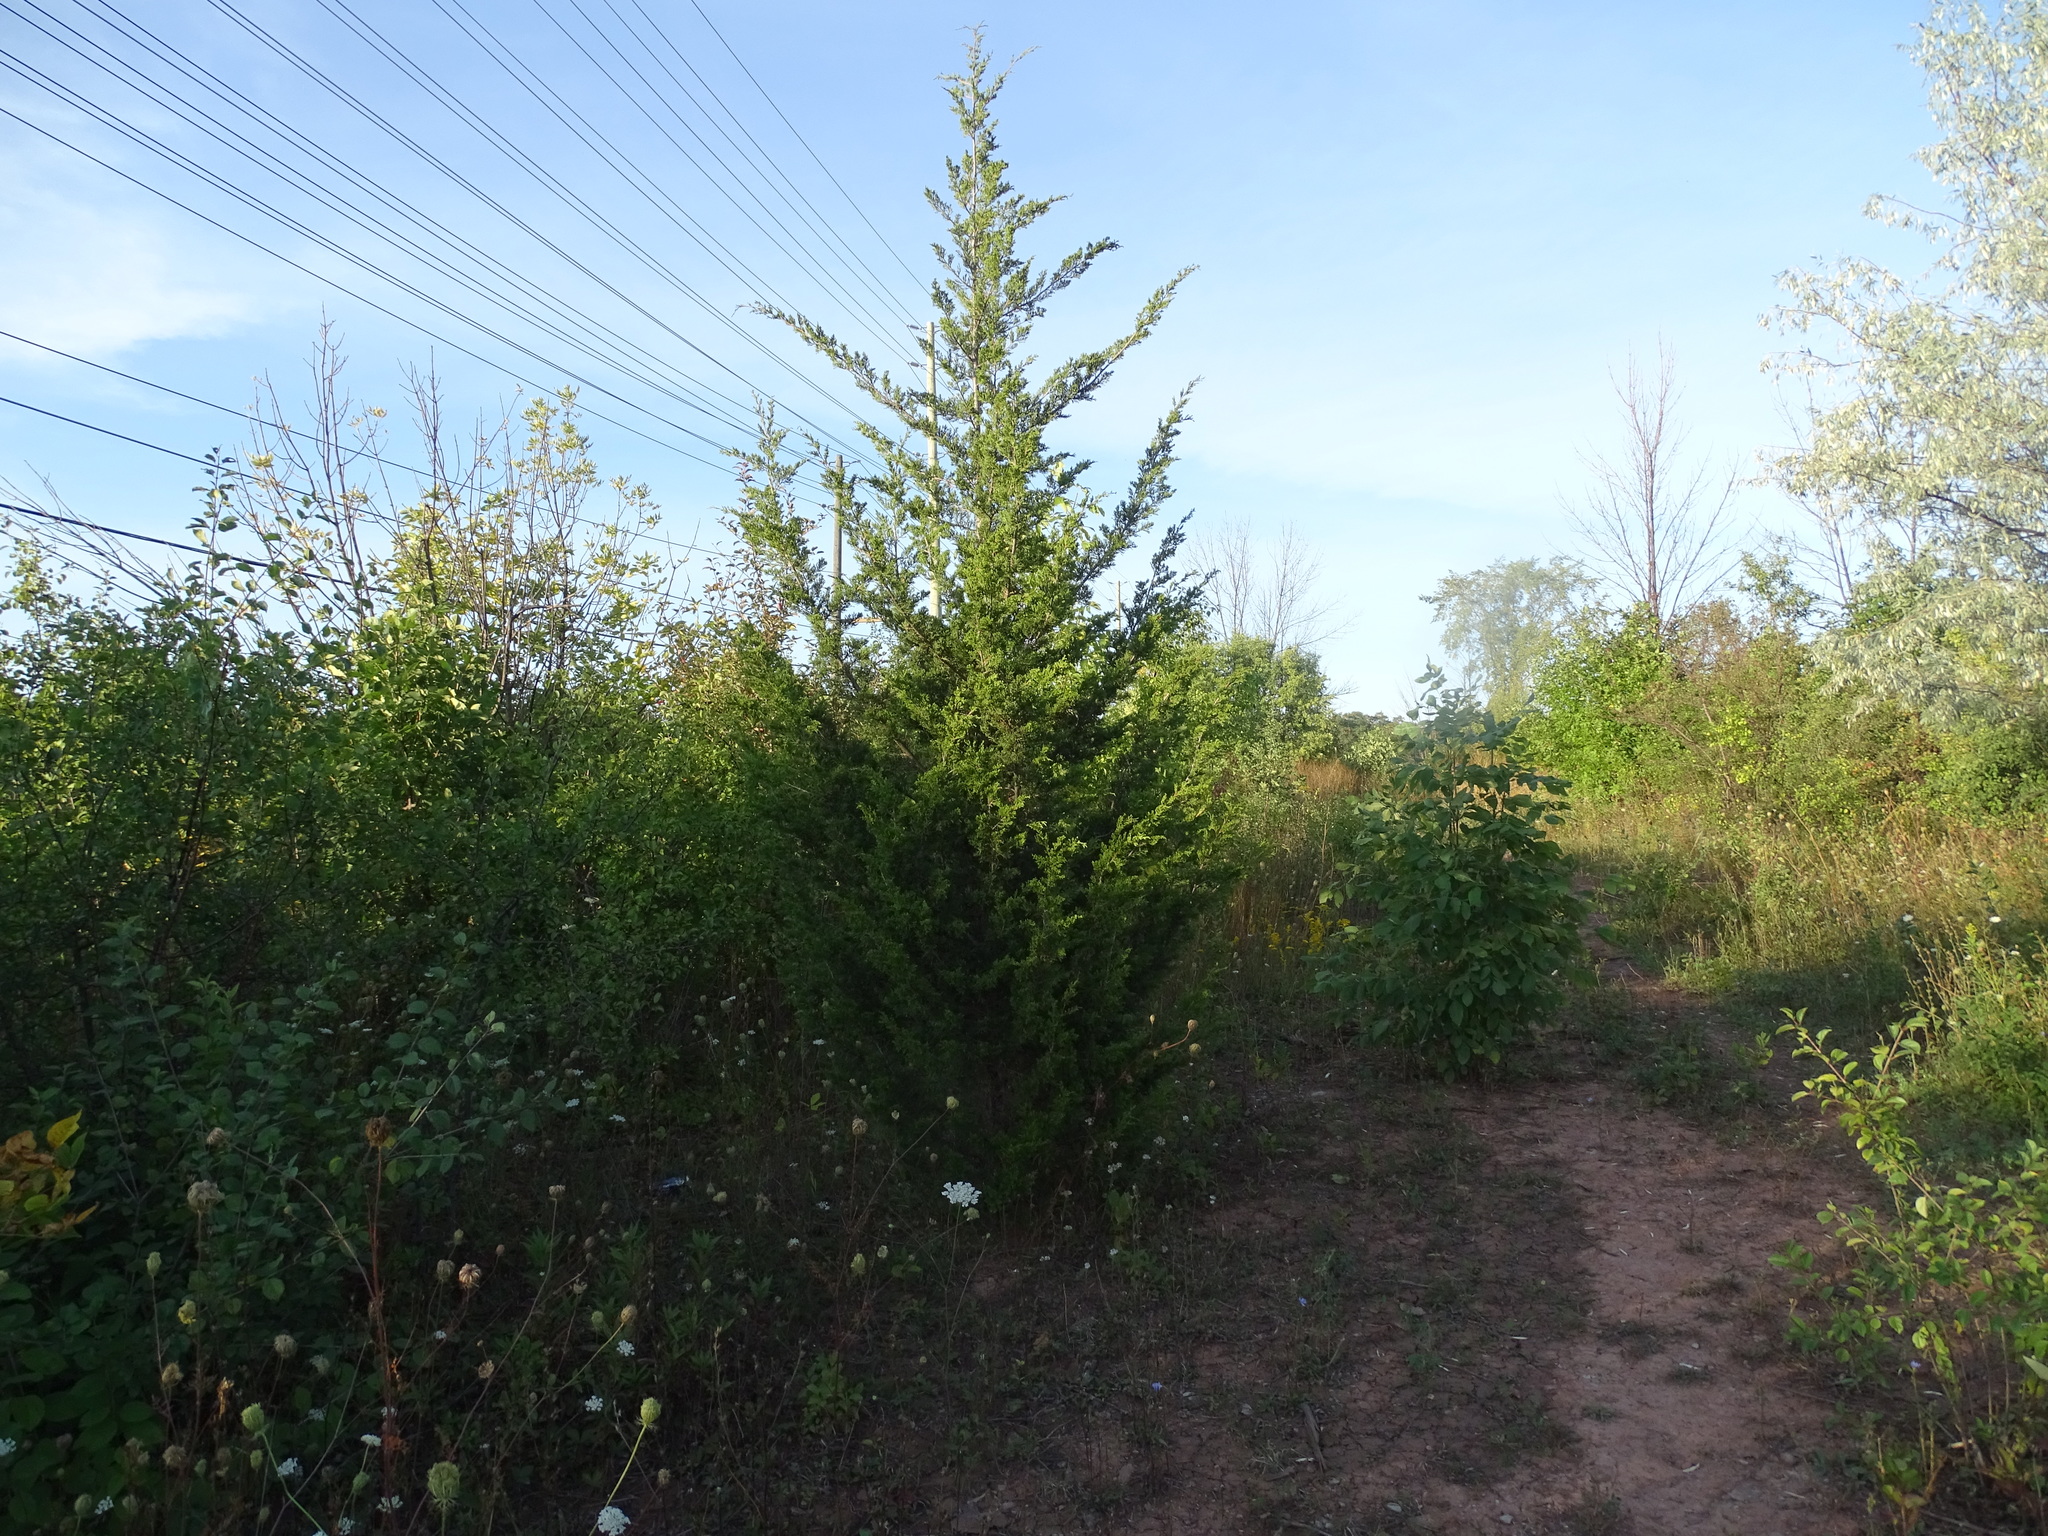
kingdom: Plantae
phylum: Tracheophyta
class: Pinopsida
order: Pinales
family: Cupressaceae
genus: Juniperus
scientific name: Juniperus virginiana
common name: Red juniper
